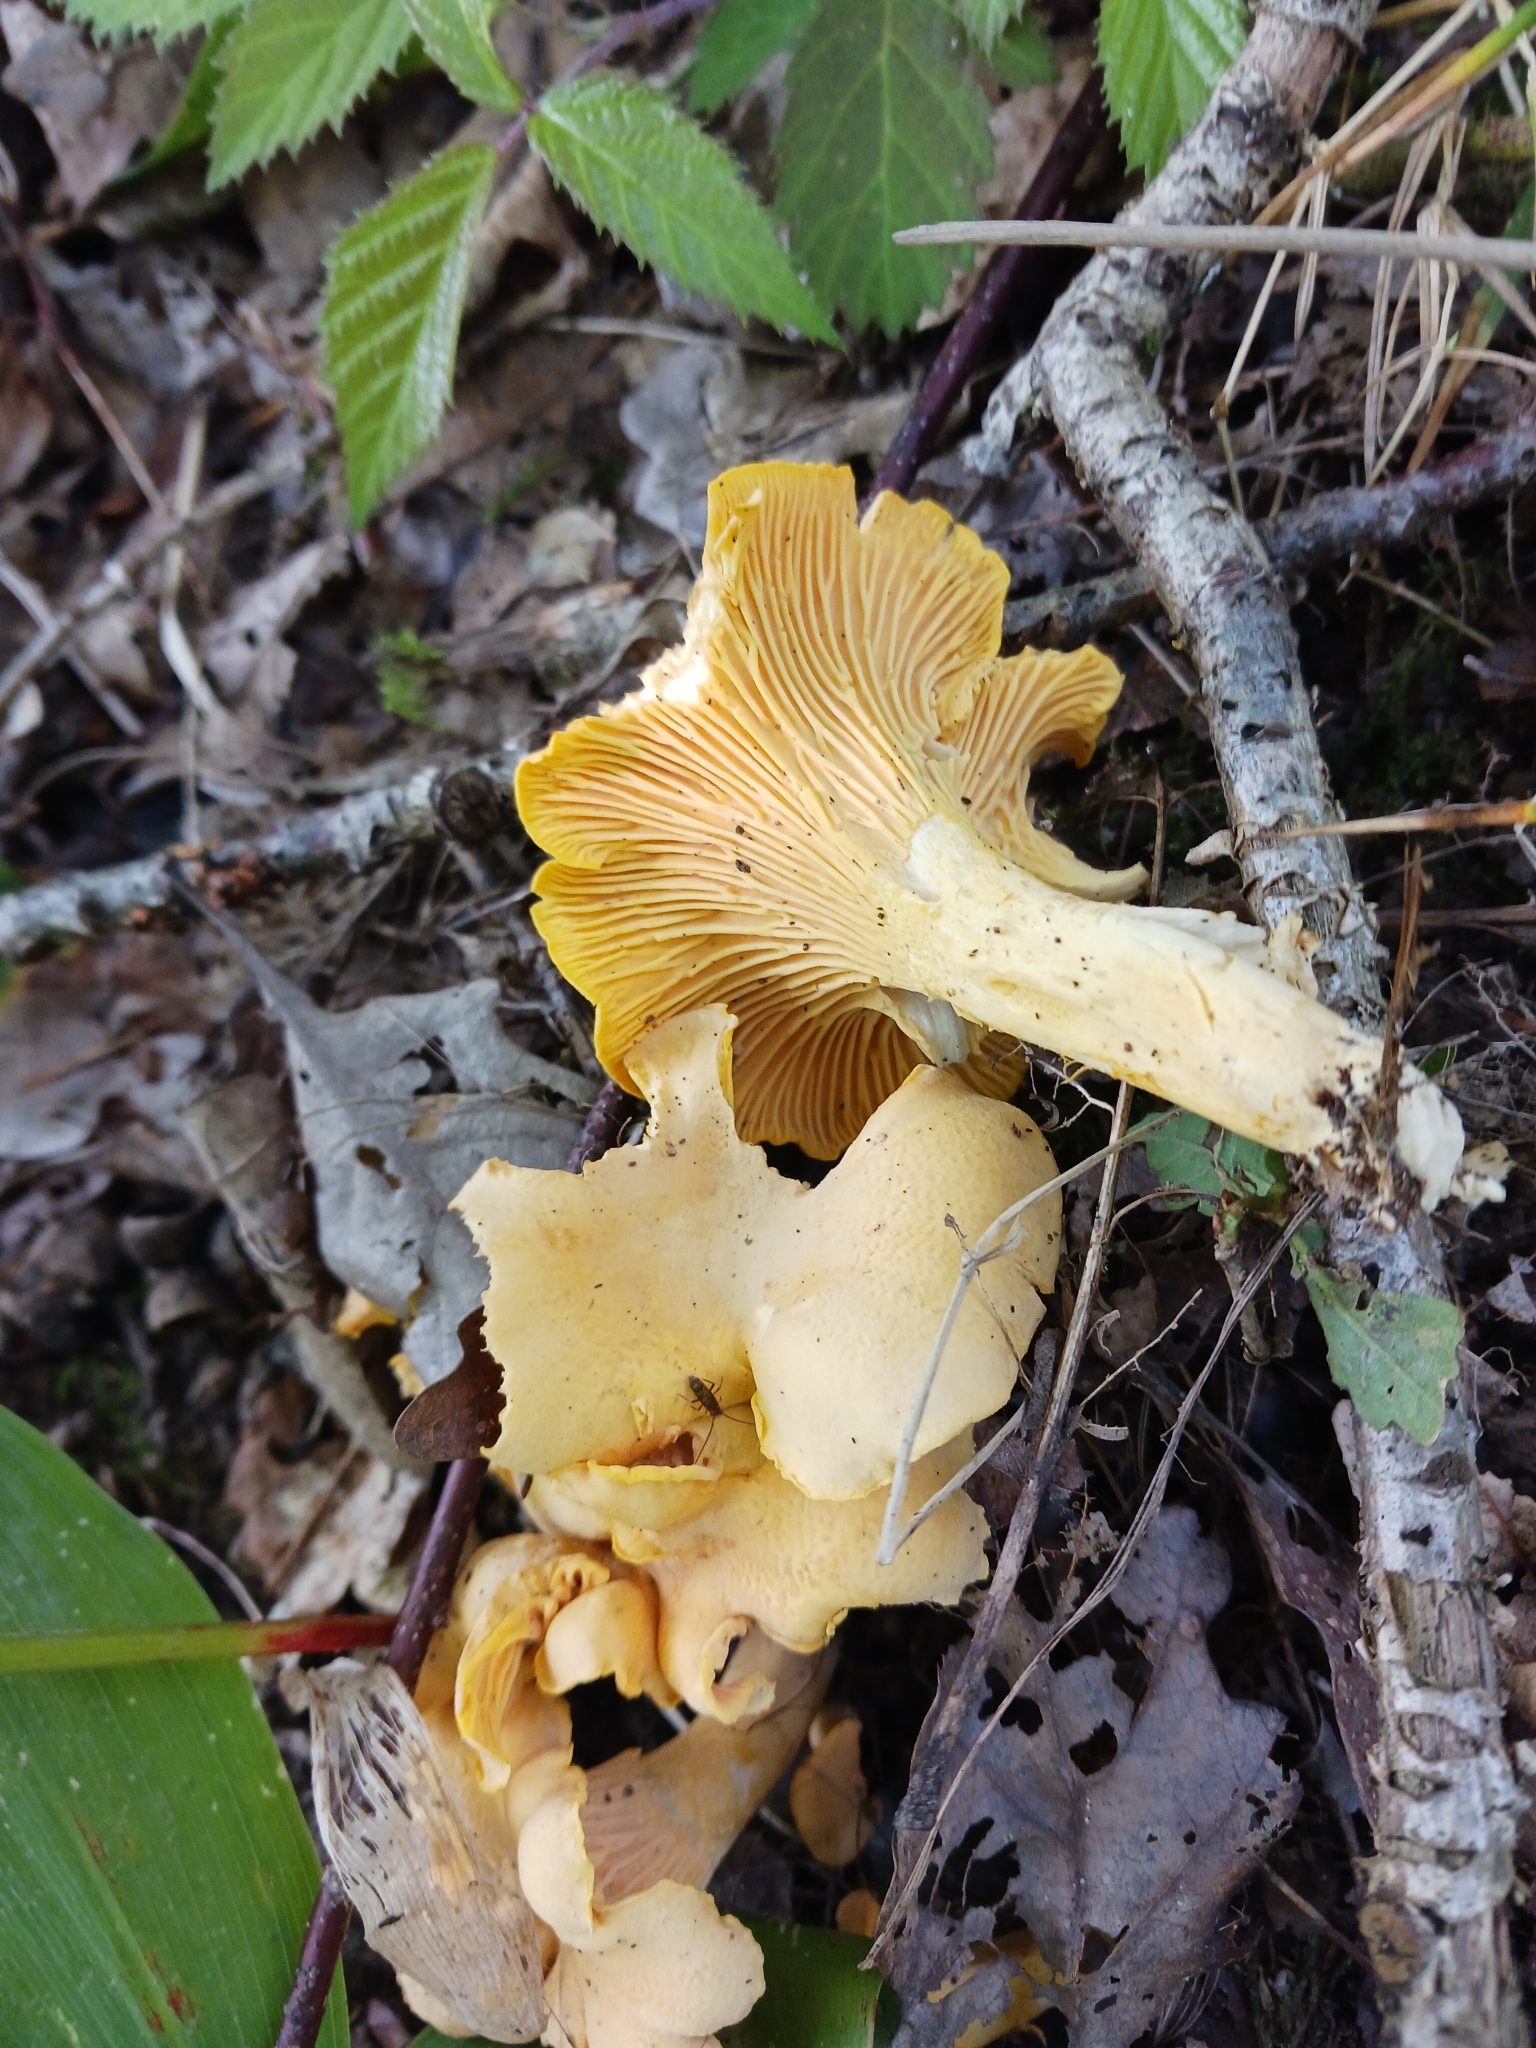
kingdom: Fungi
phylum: Basidiomycota
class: Agaricomycetes
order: Cantharellales
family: Hydnaceae
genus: Cantharellus
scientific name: Cantharellus cibarius
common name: Chanterelle
